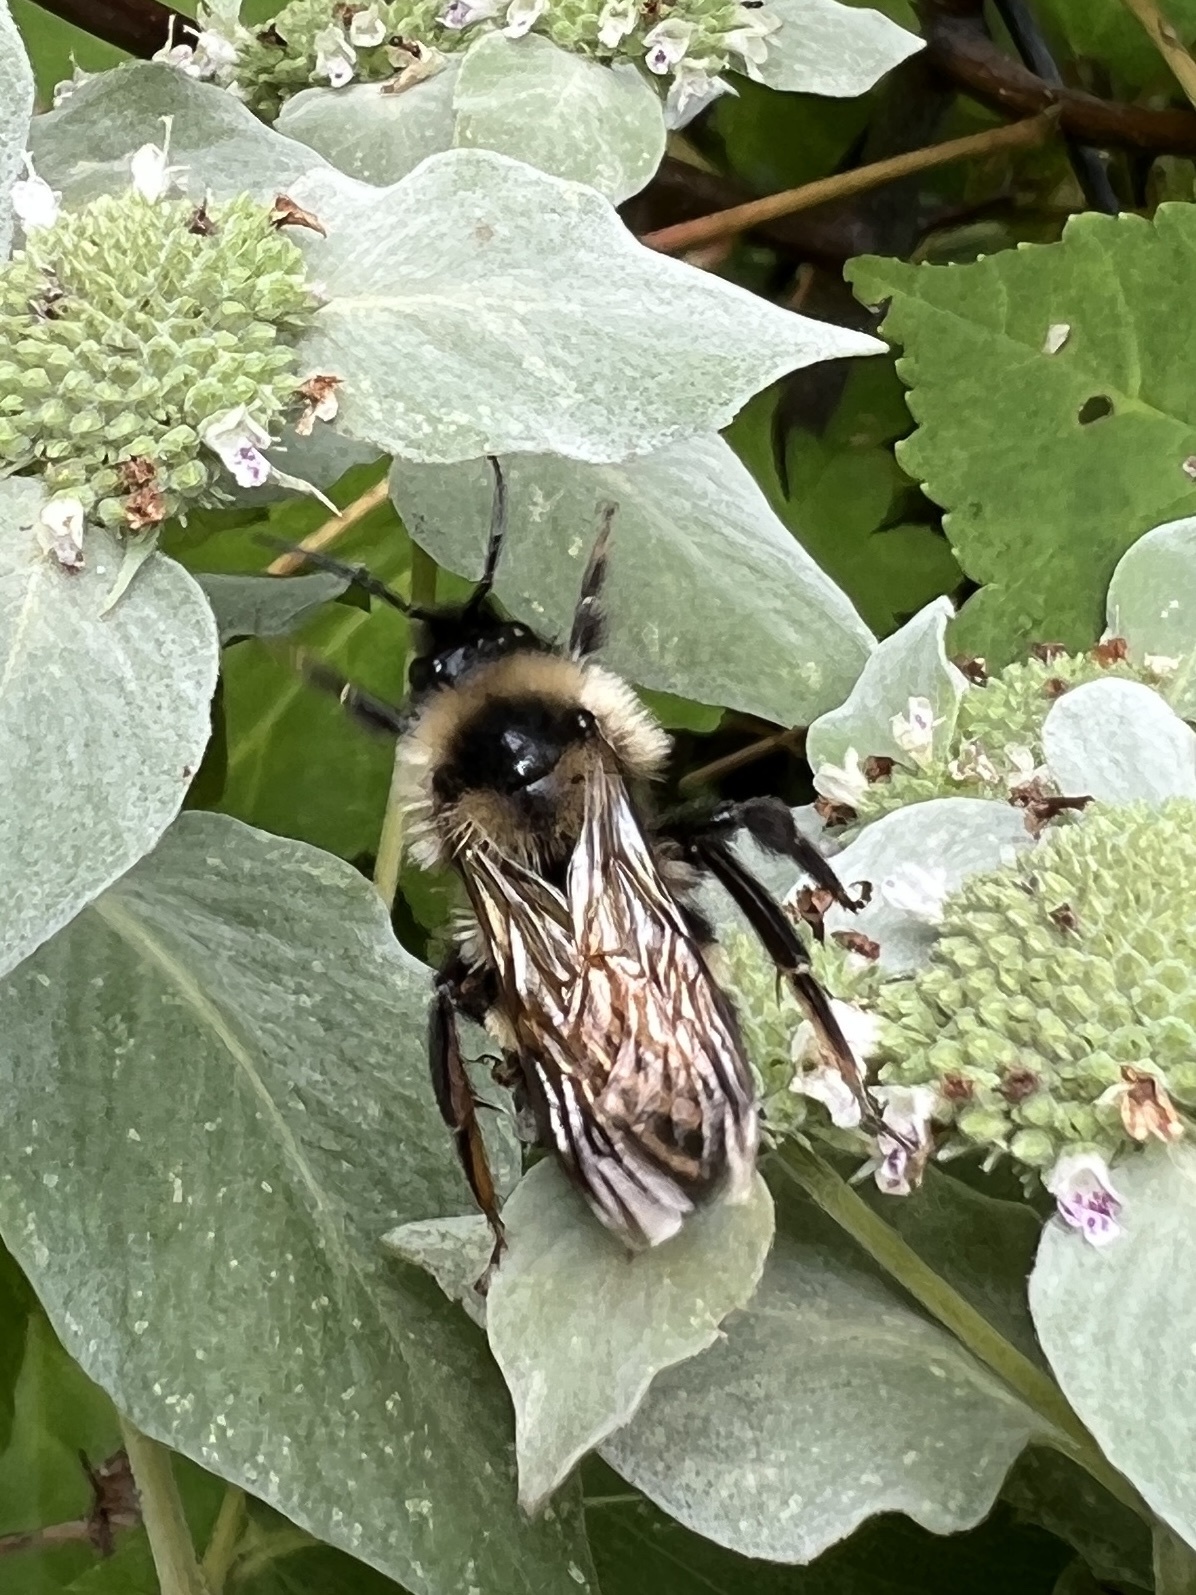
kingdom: Animalia
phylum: Arthropoda
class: Insecta
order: Hymenoptera
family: Apidae
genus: Bombus
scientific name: Bombus citrinus
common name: Lemon cuckoo bumble bee
